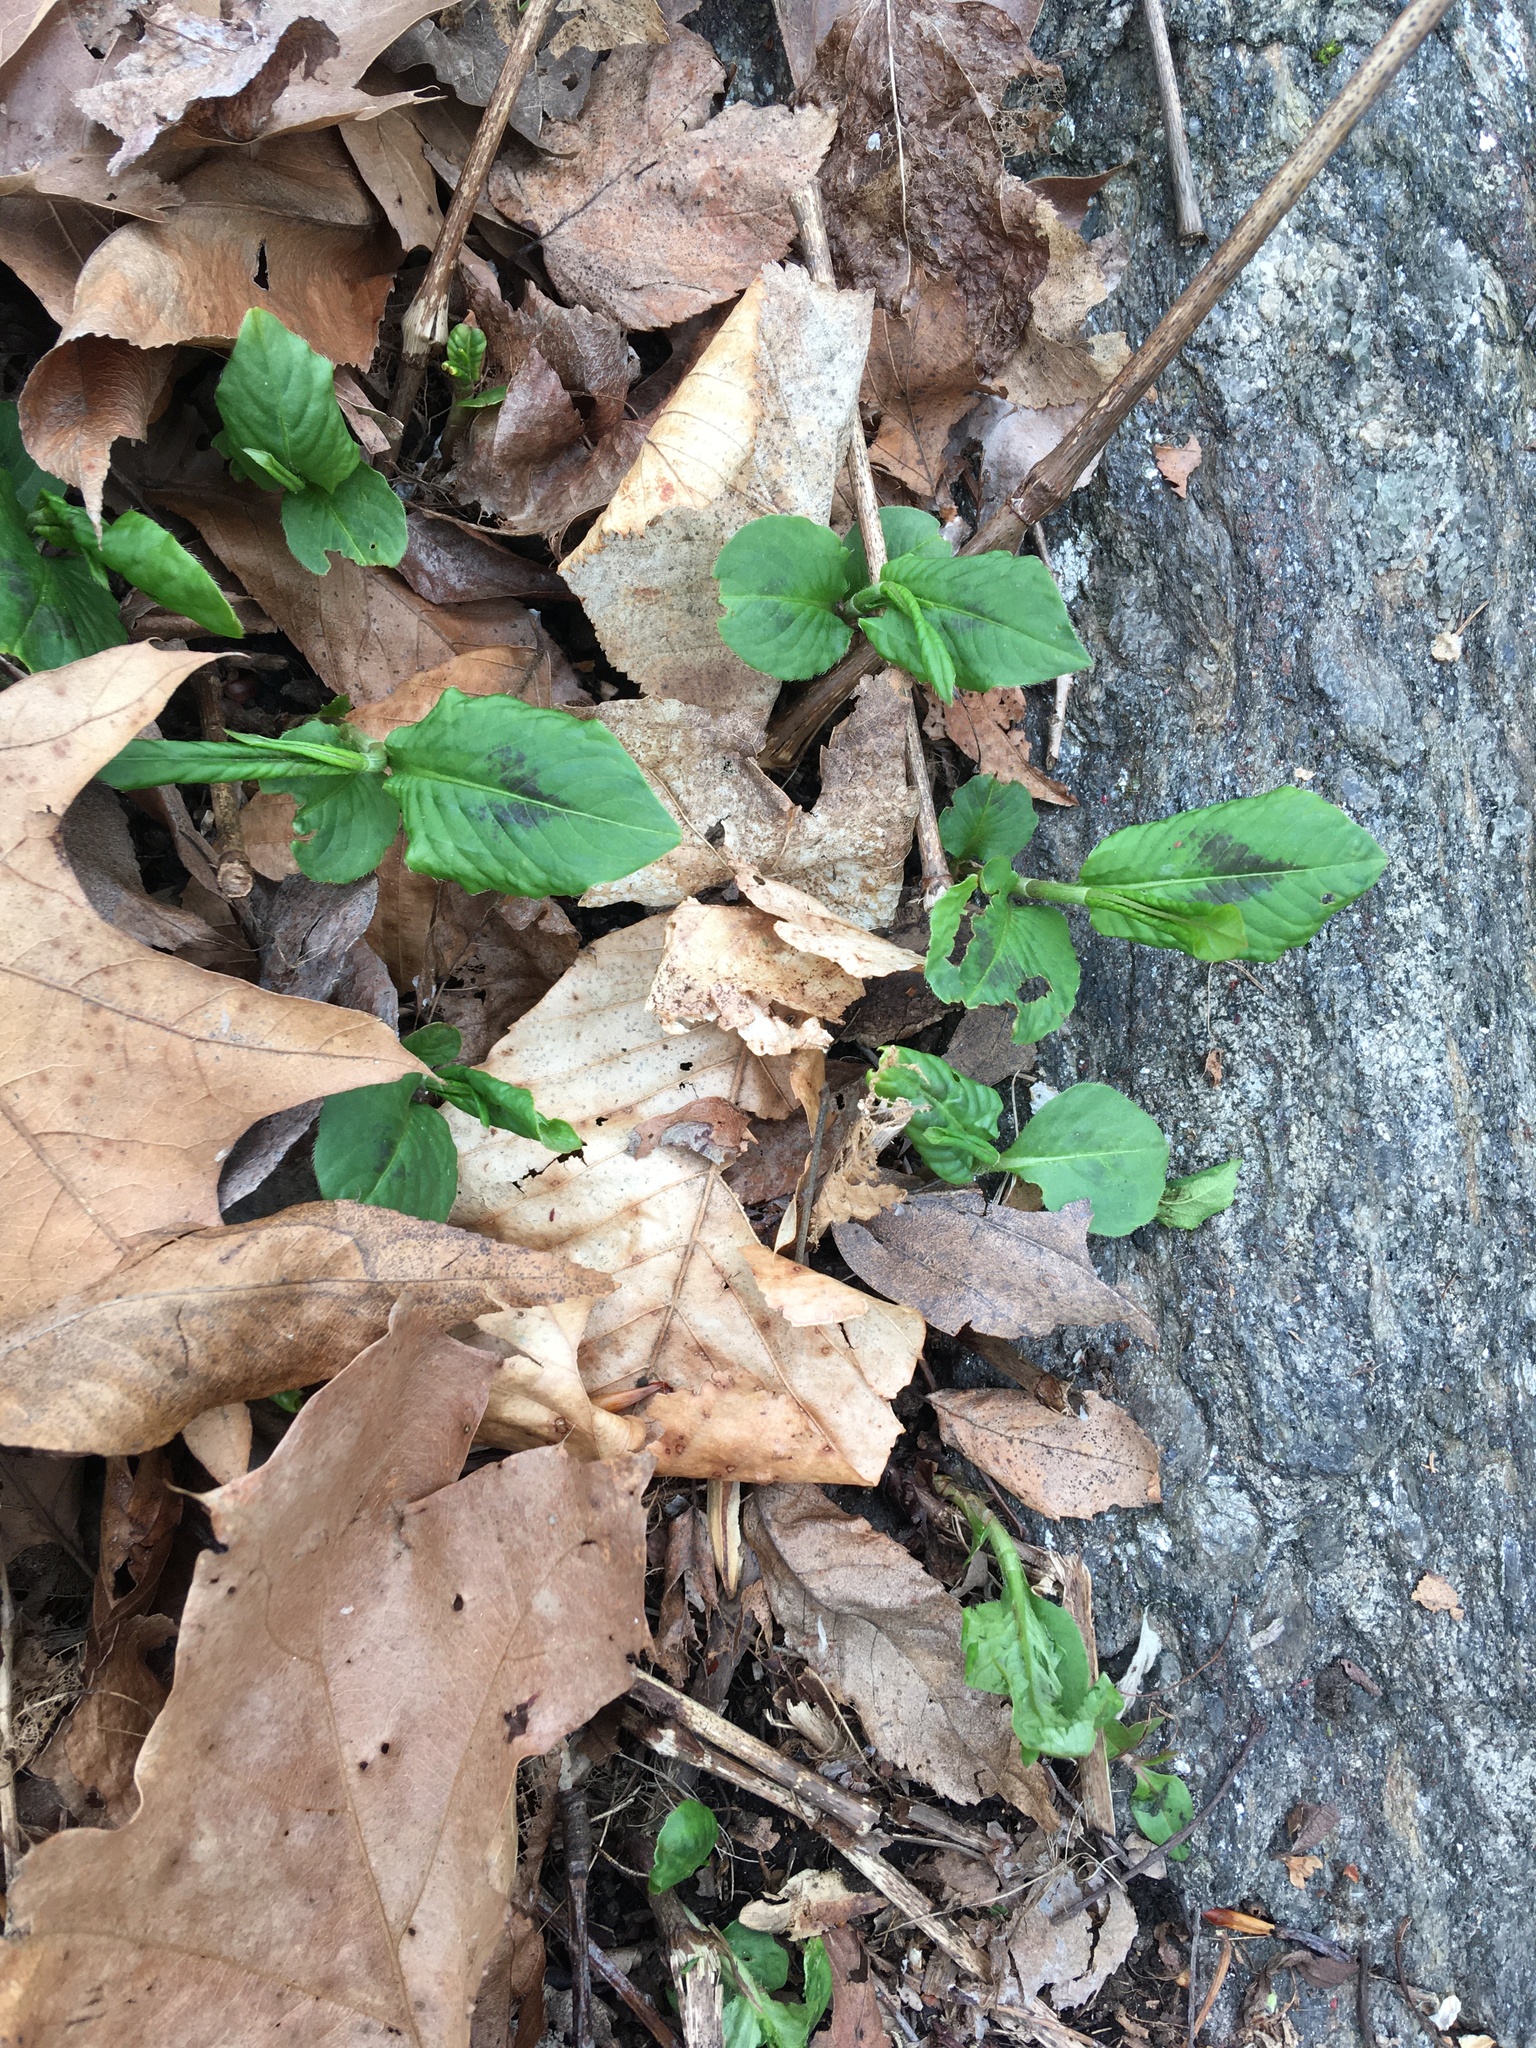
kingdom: Plantae
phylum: Tracheophyta
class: Magnoliopsida
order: Caryophyllales
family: Polygonaceae
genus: Persicaria
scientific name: Persicaria virginiana
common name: Jumpseed
